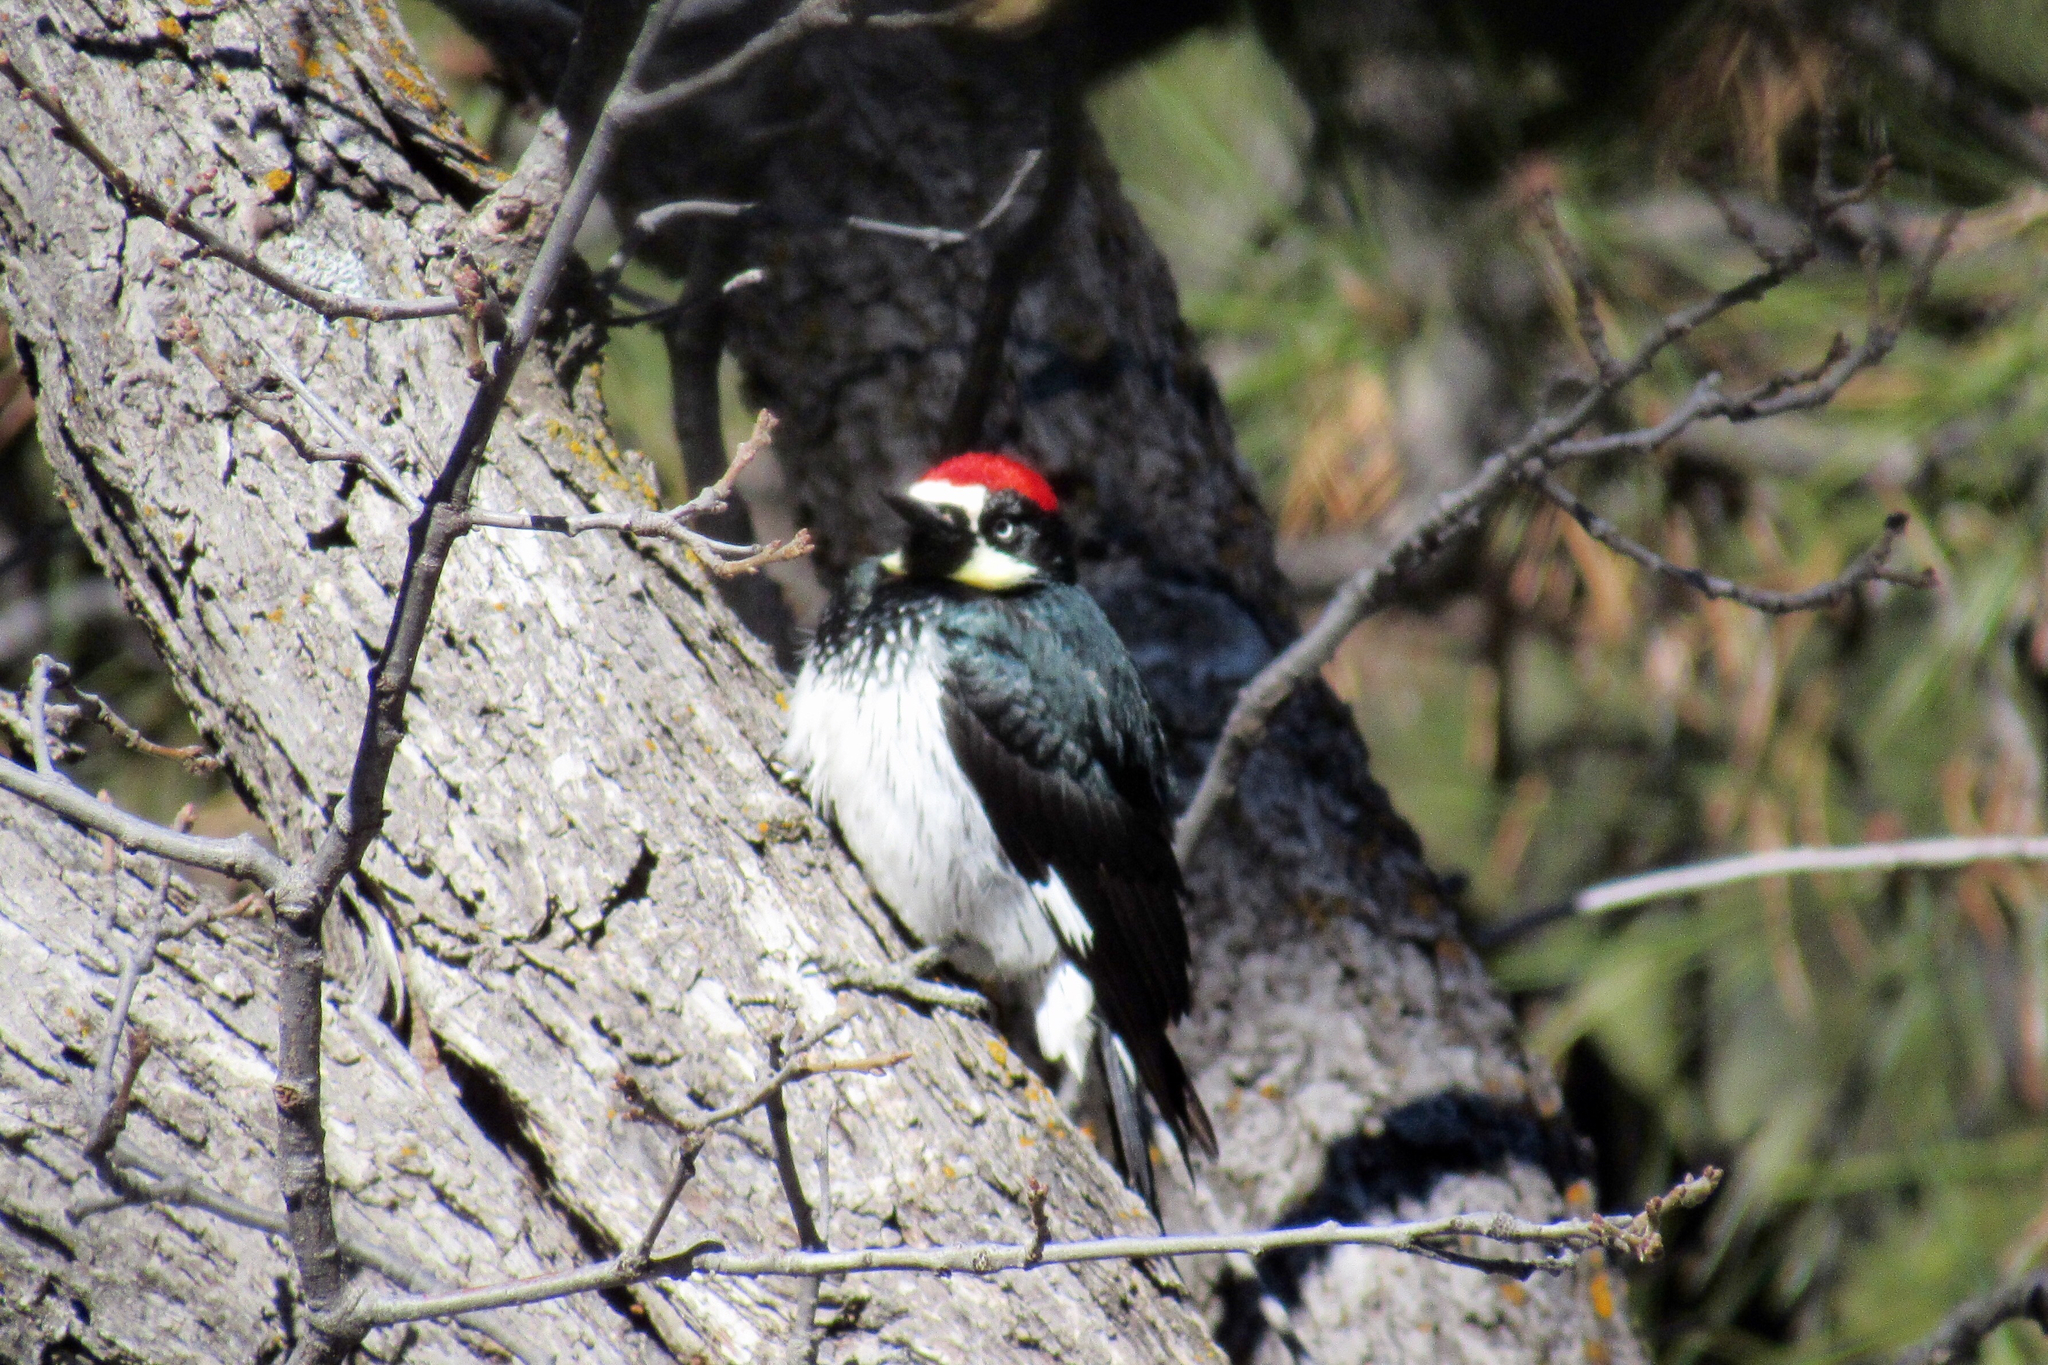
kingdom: Animalia
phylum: Chordata
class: Aves
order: Piciformes
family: Picidae
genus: Melanerpes
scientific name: Melanerpes formicivorus
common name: Acorn woodpecker
